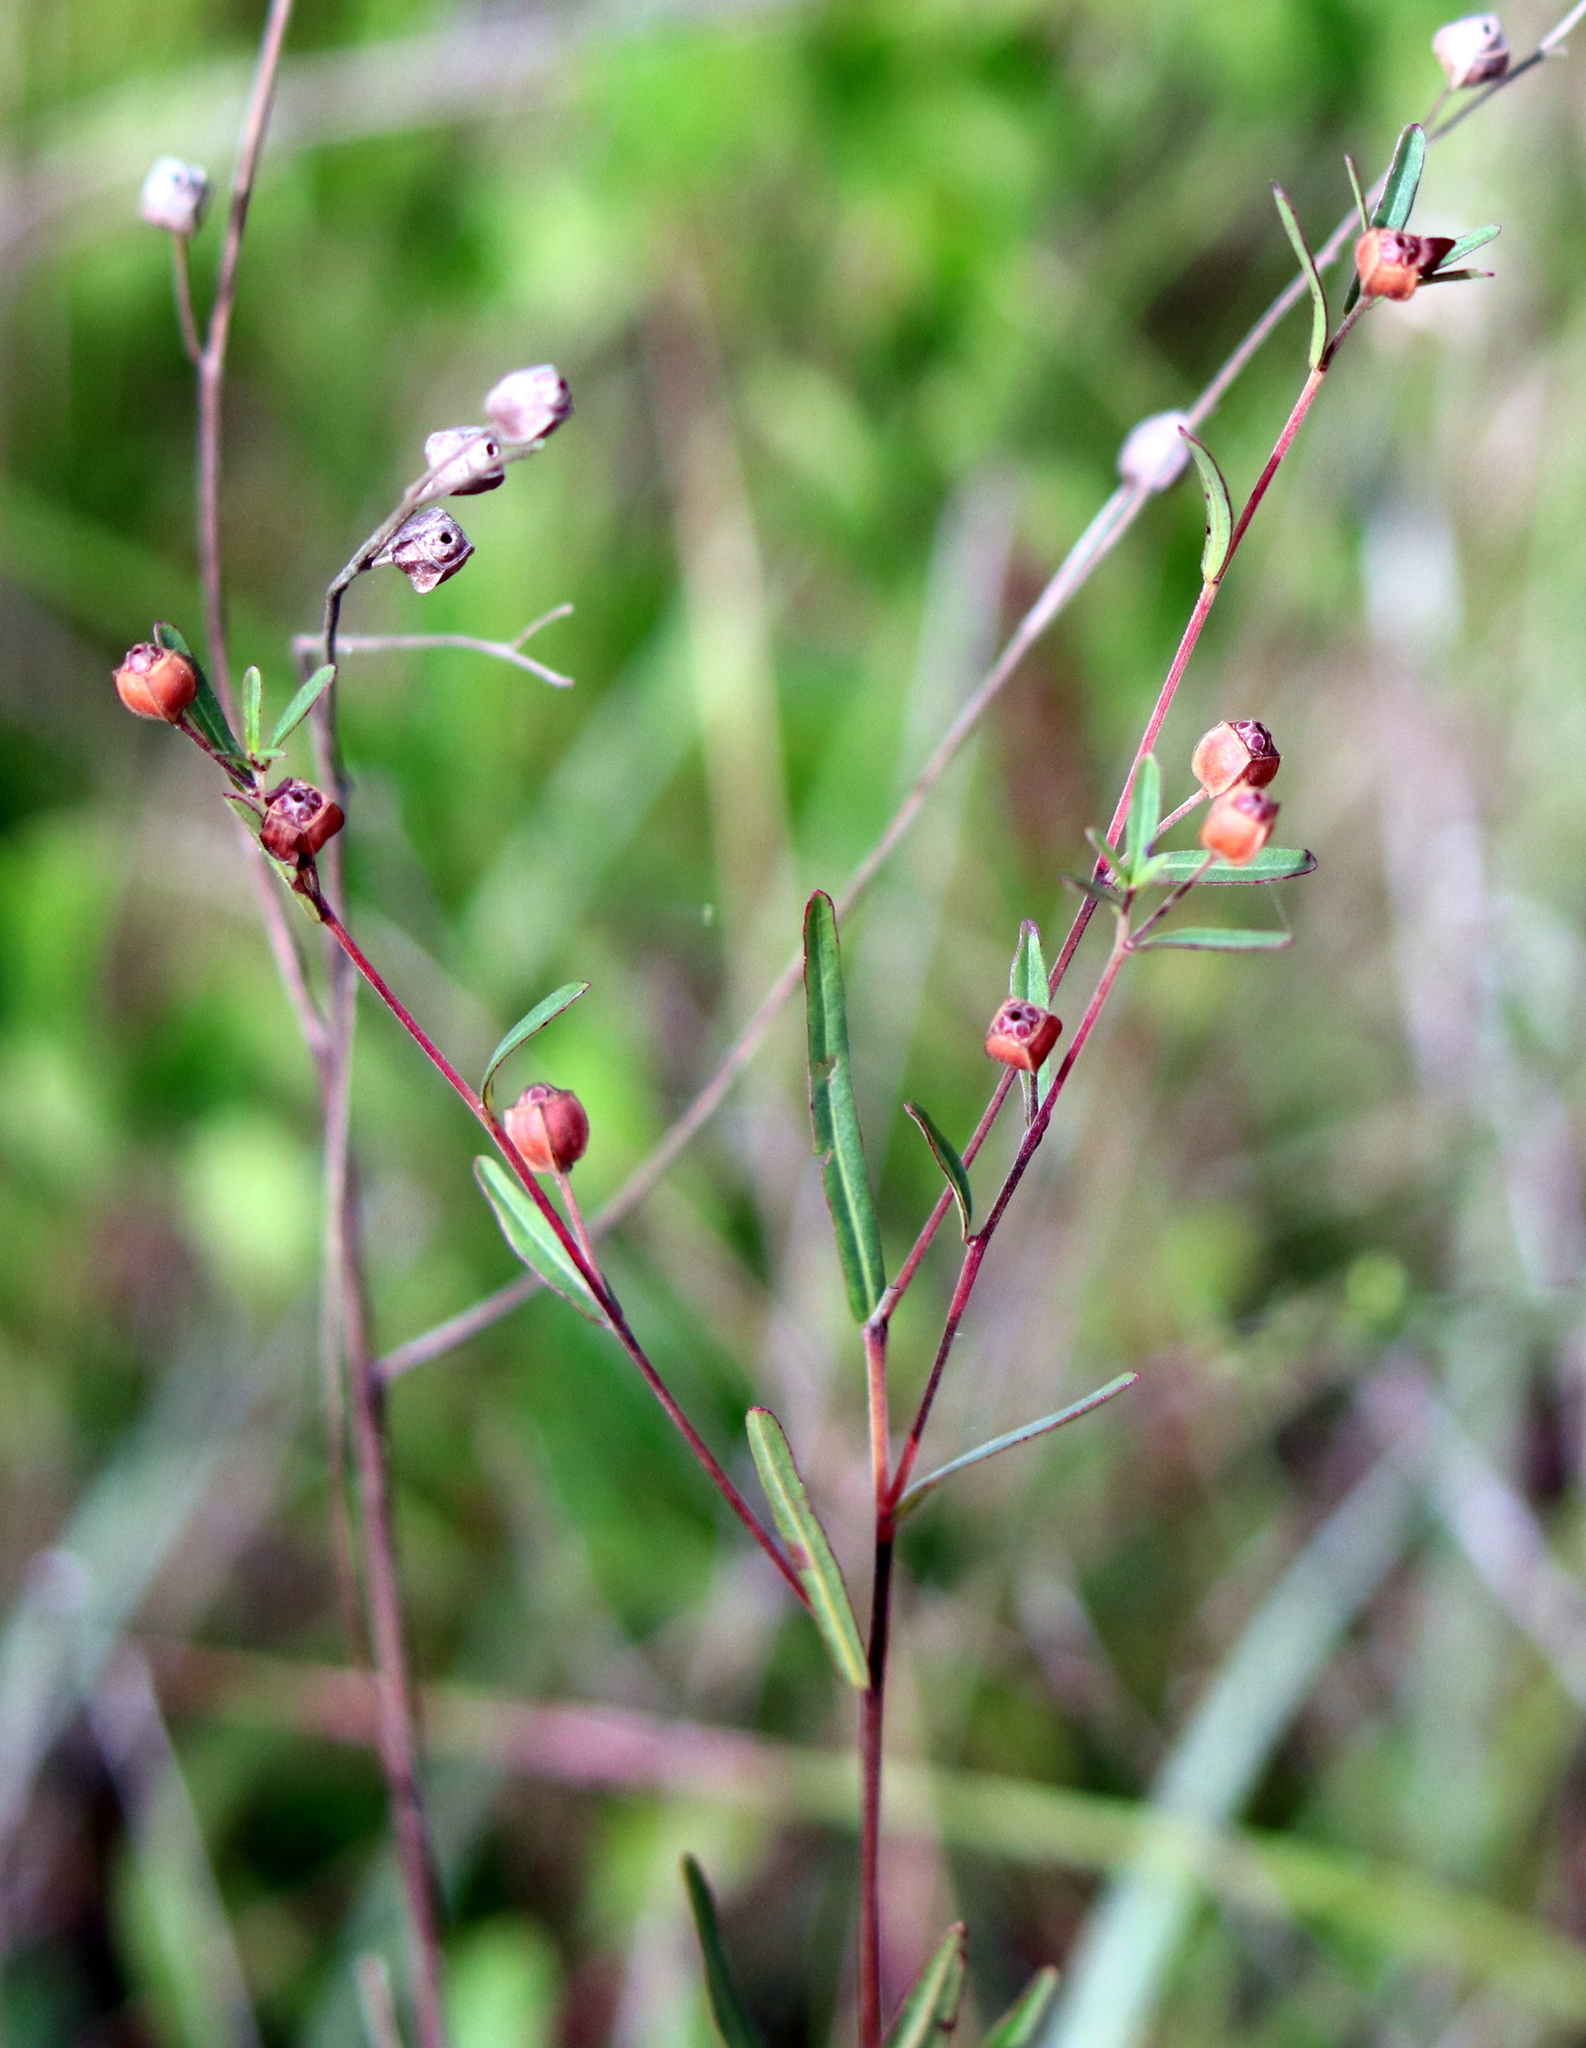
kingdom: Plantae
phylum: Tracheophyta
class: Magnoliopsida
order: Myrtales
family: Onagraceae
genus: Ludwigia
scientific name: Ludwigia maritima
